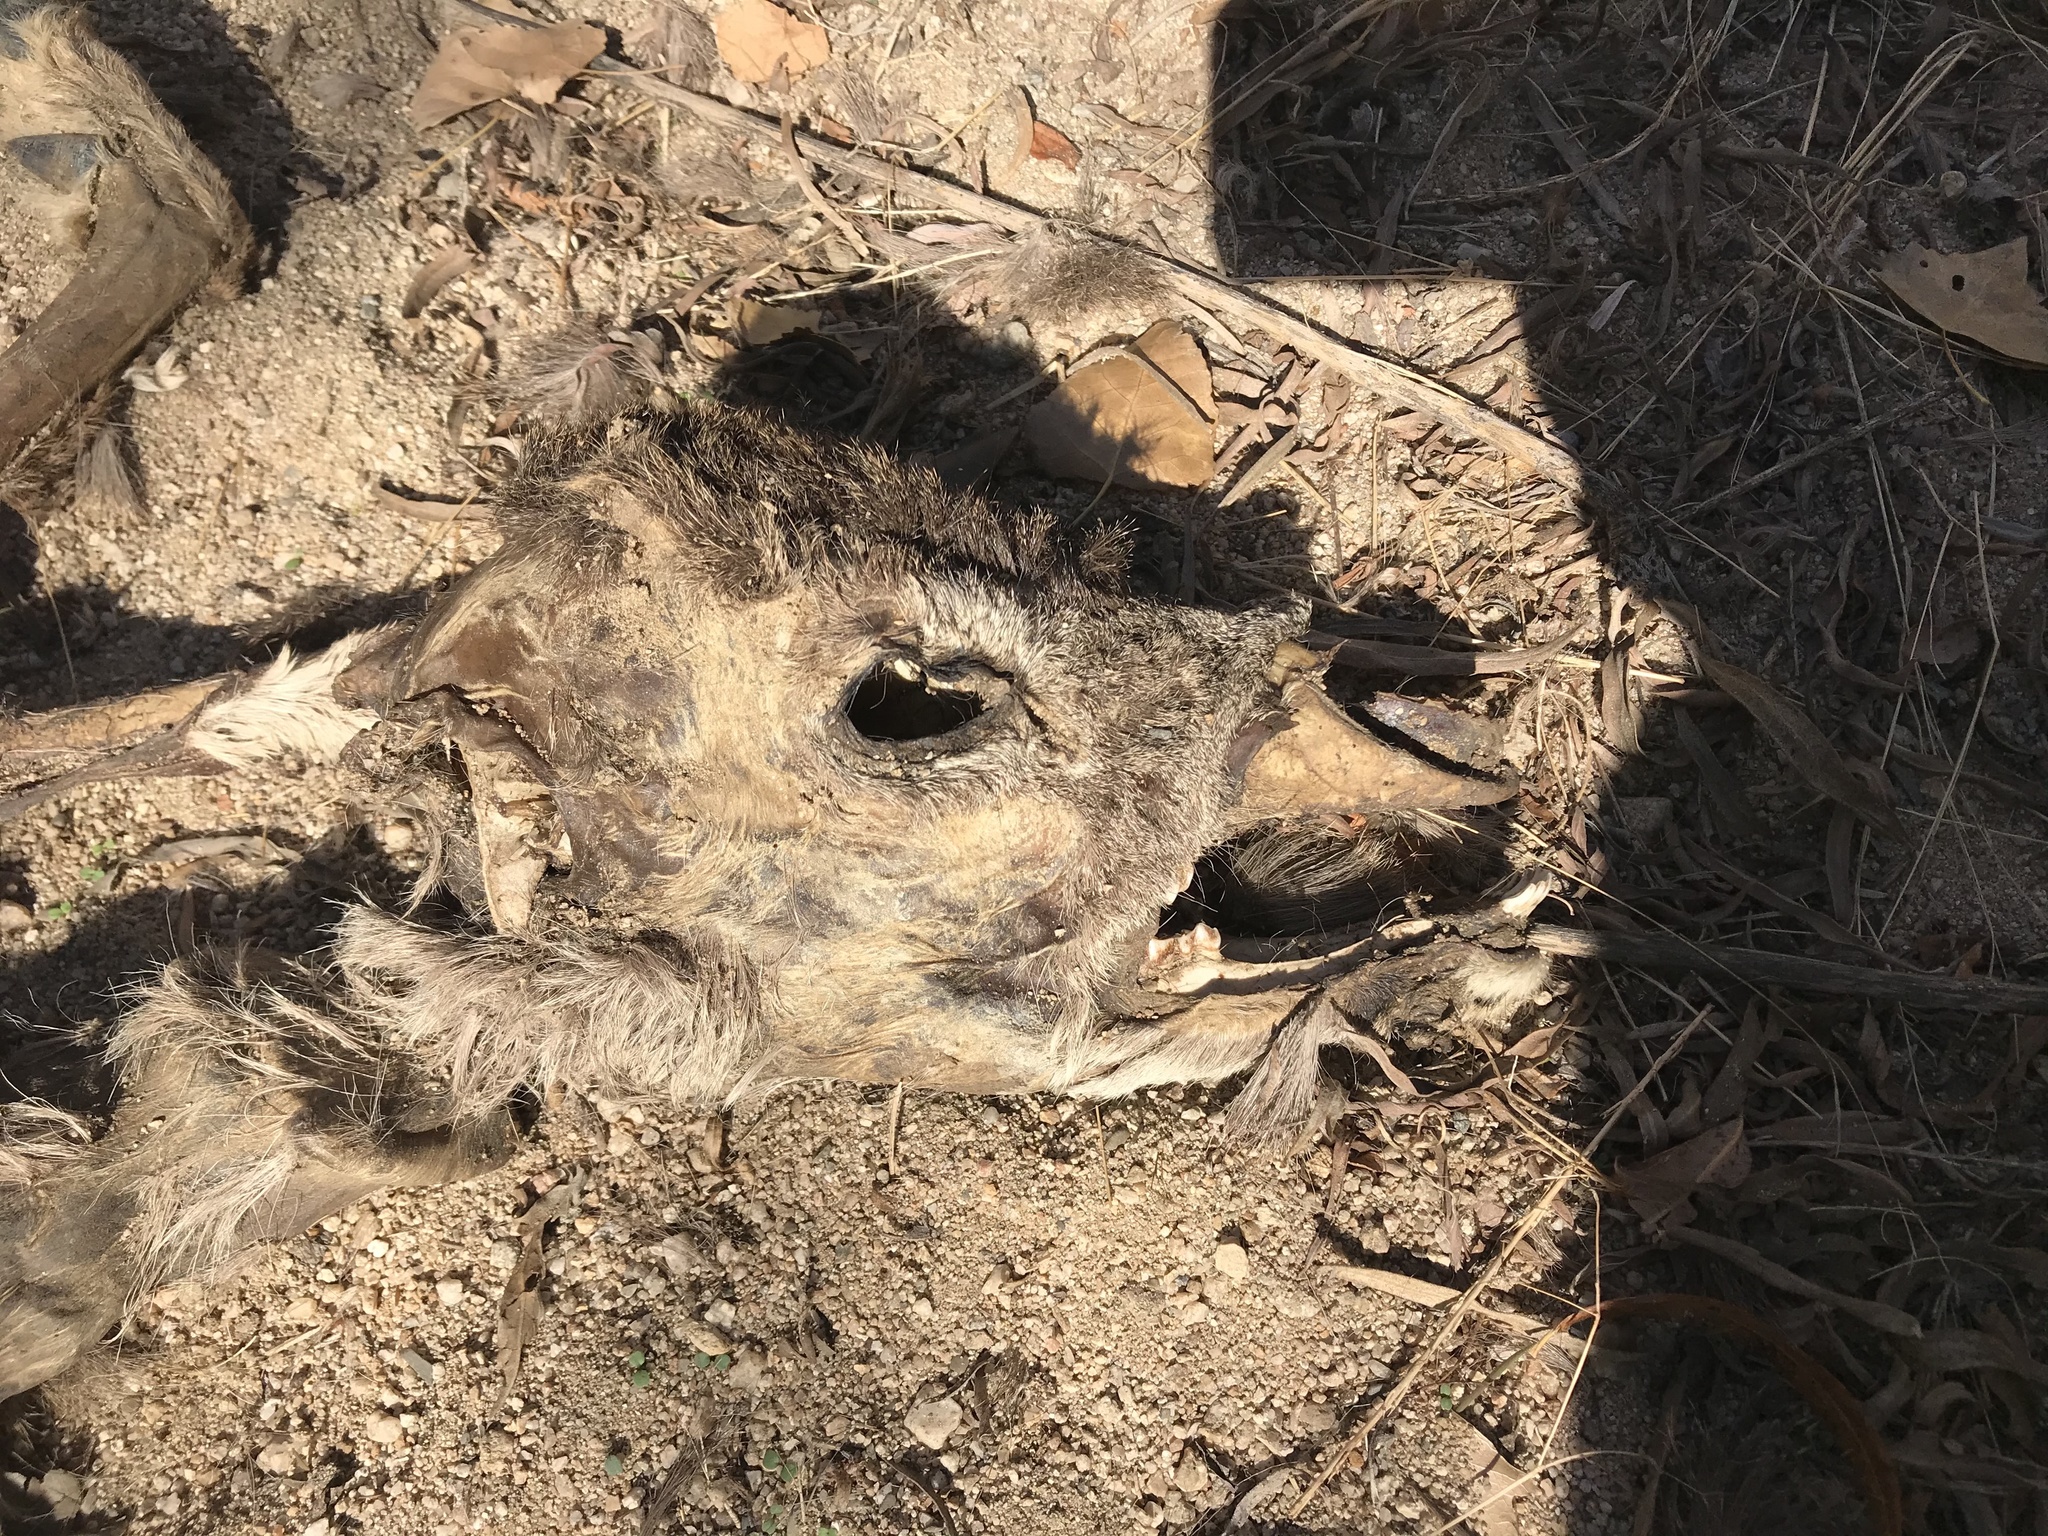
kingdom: Animalia
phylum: Chordata
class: Mammalia
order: Artiodactyla
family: Cervidae
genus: Odocoileus
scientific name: Odocoileus hemionus
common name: Mule deer
